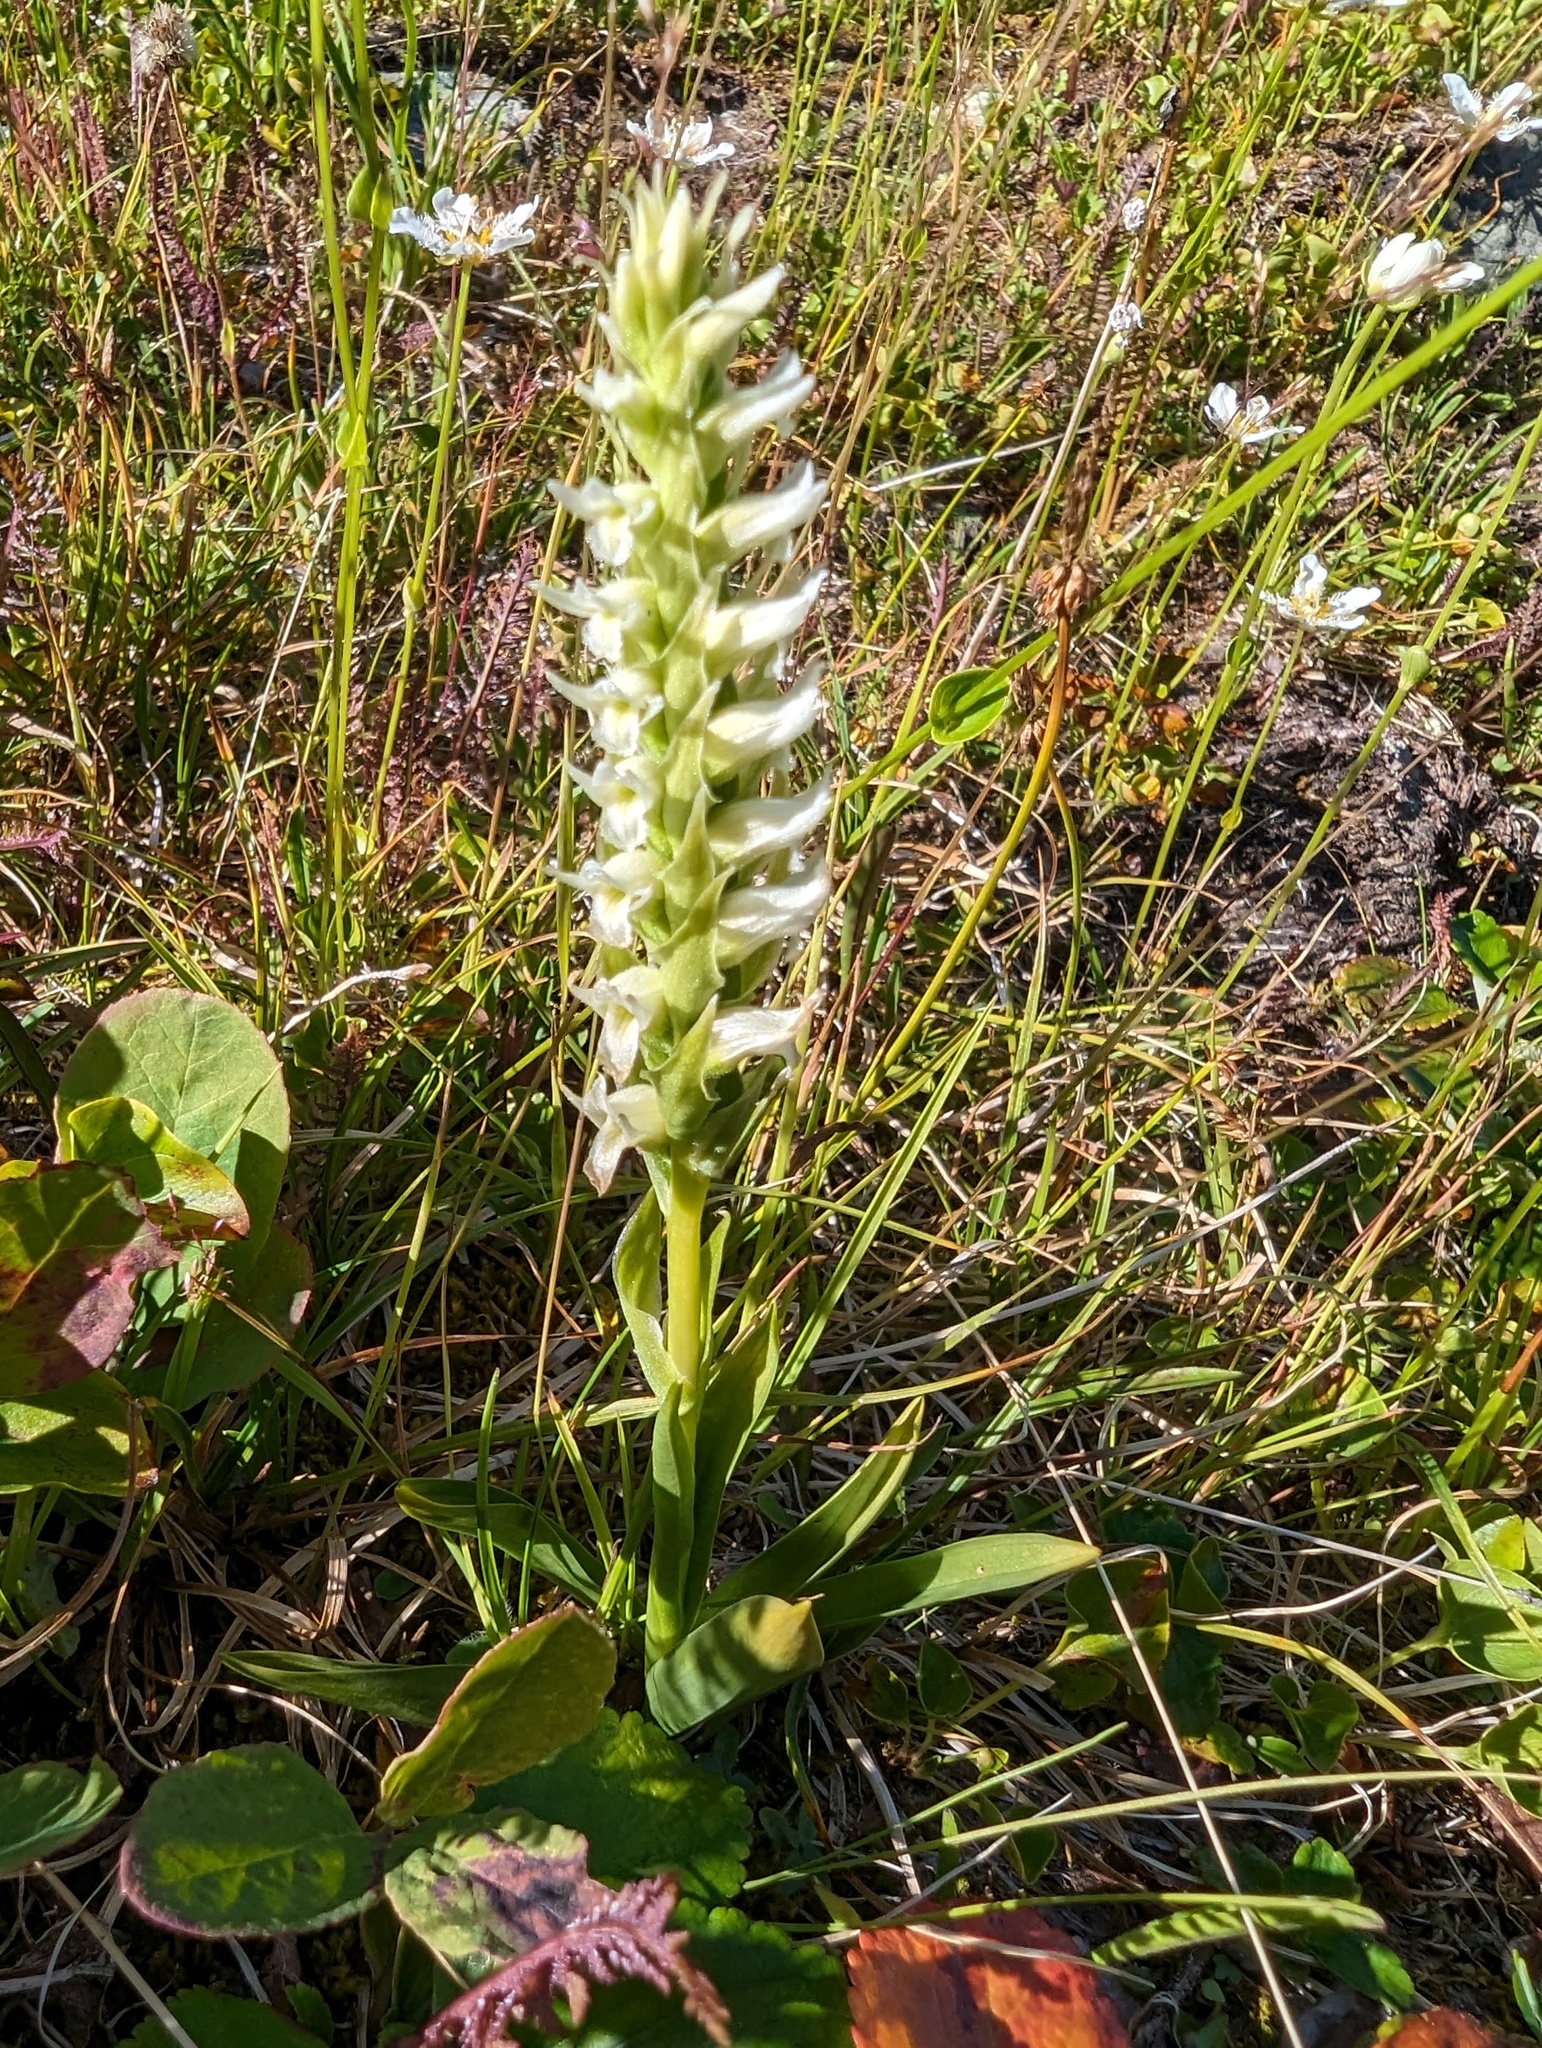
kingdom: Plantae
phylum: Tracheophyta
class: Liliopsida
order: Asparagales
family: Orchidaceae
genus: Spiranthes
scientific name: Spiranthes romanzoffiana
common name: Irish lady's-tresses
